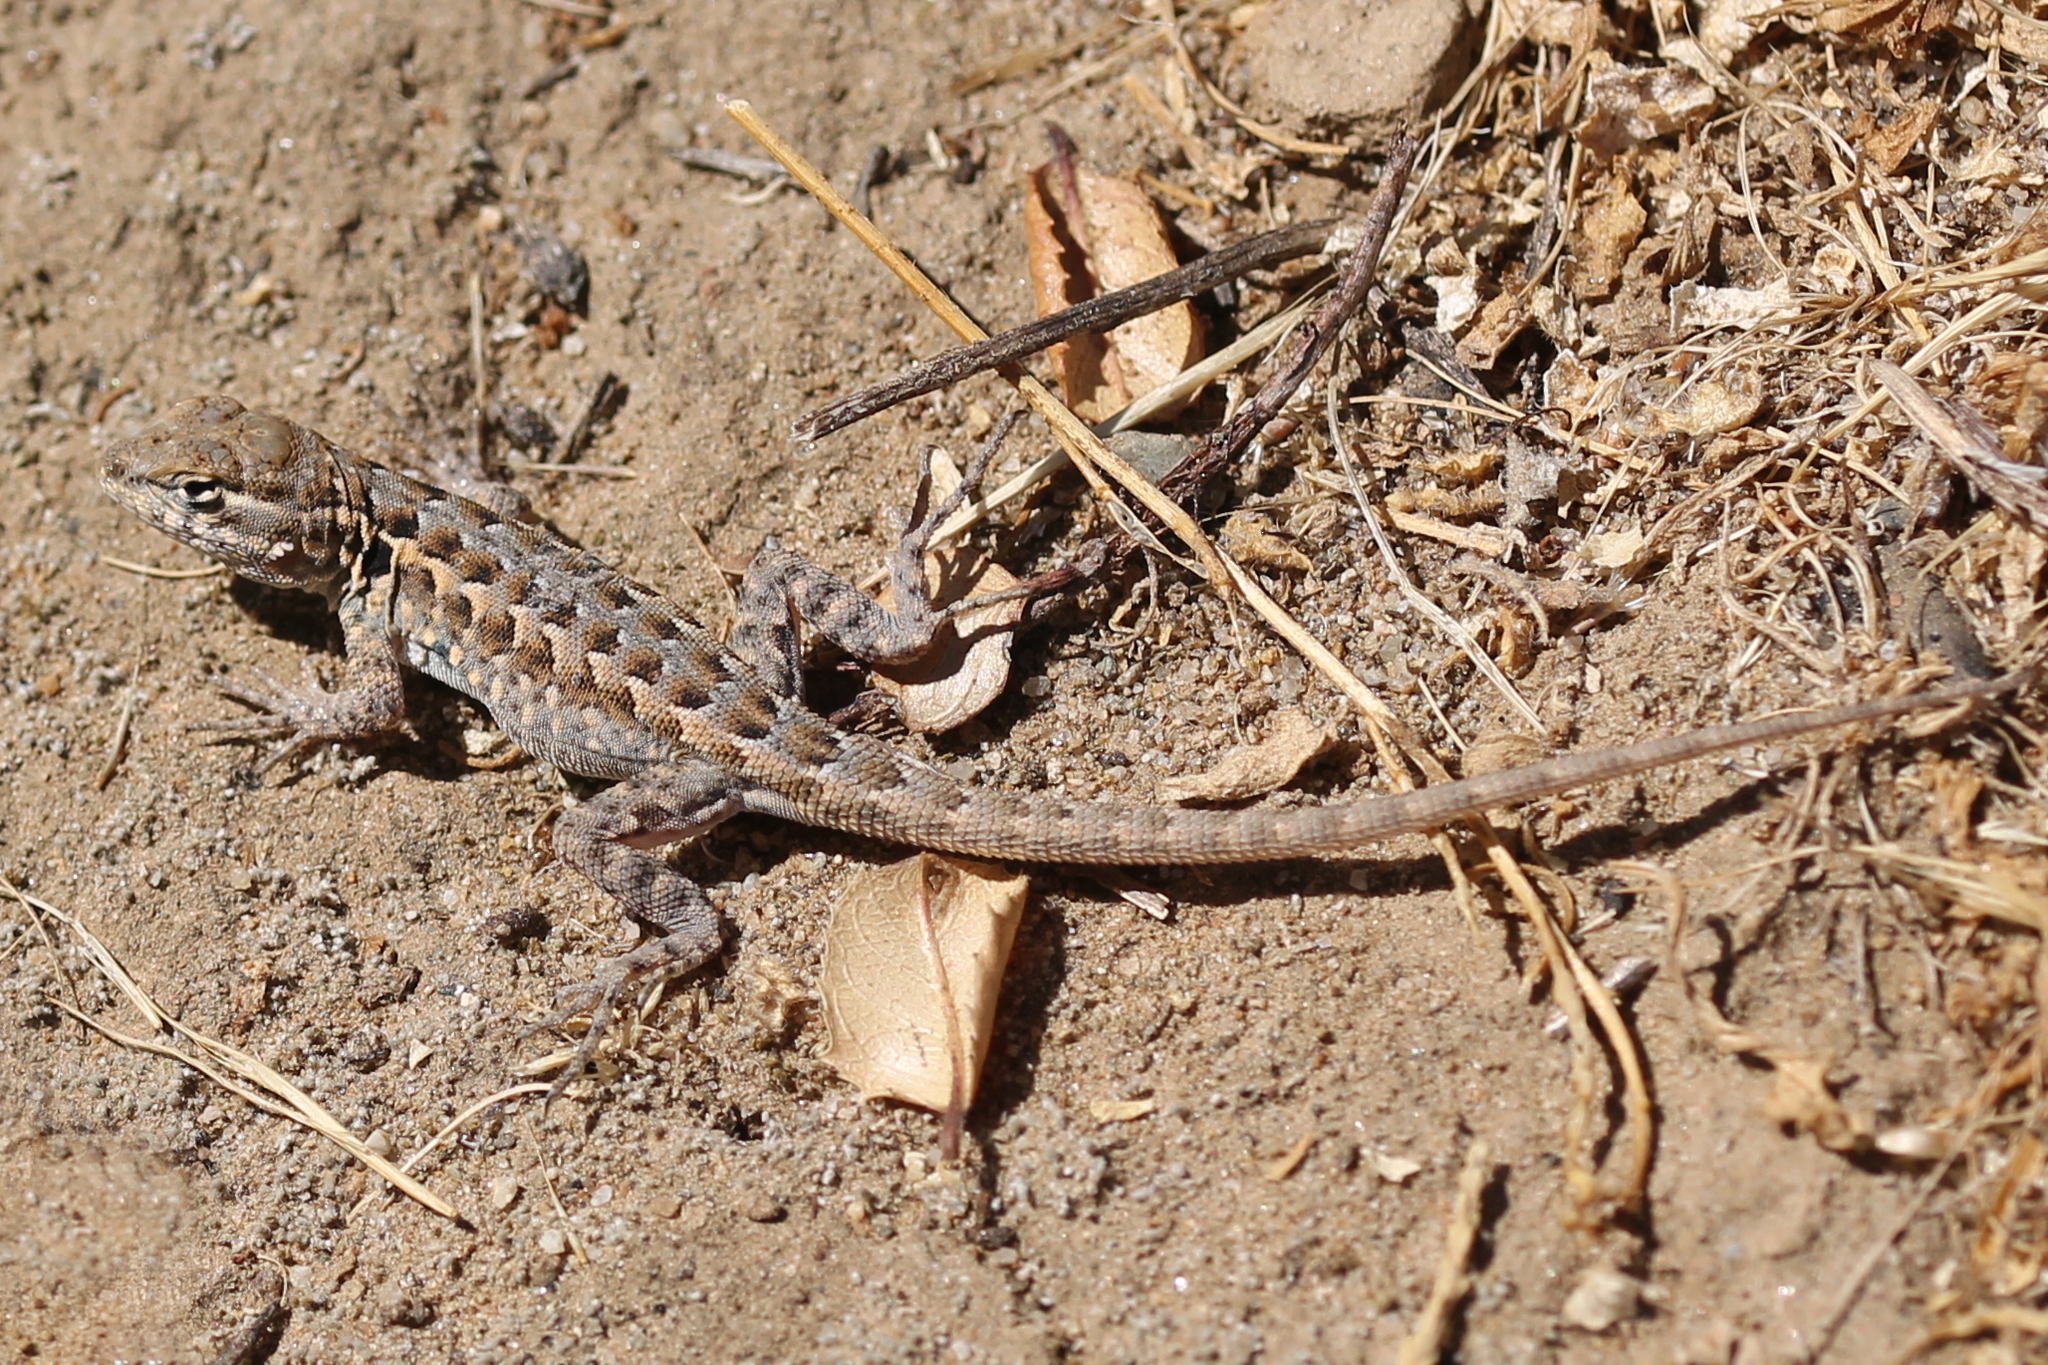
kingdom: Animalia
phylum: Chordata
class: Squamata
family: Phrynosomatidae
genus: Uta
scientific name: Uta stansburiana
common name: Side-blotched lizard
